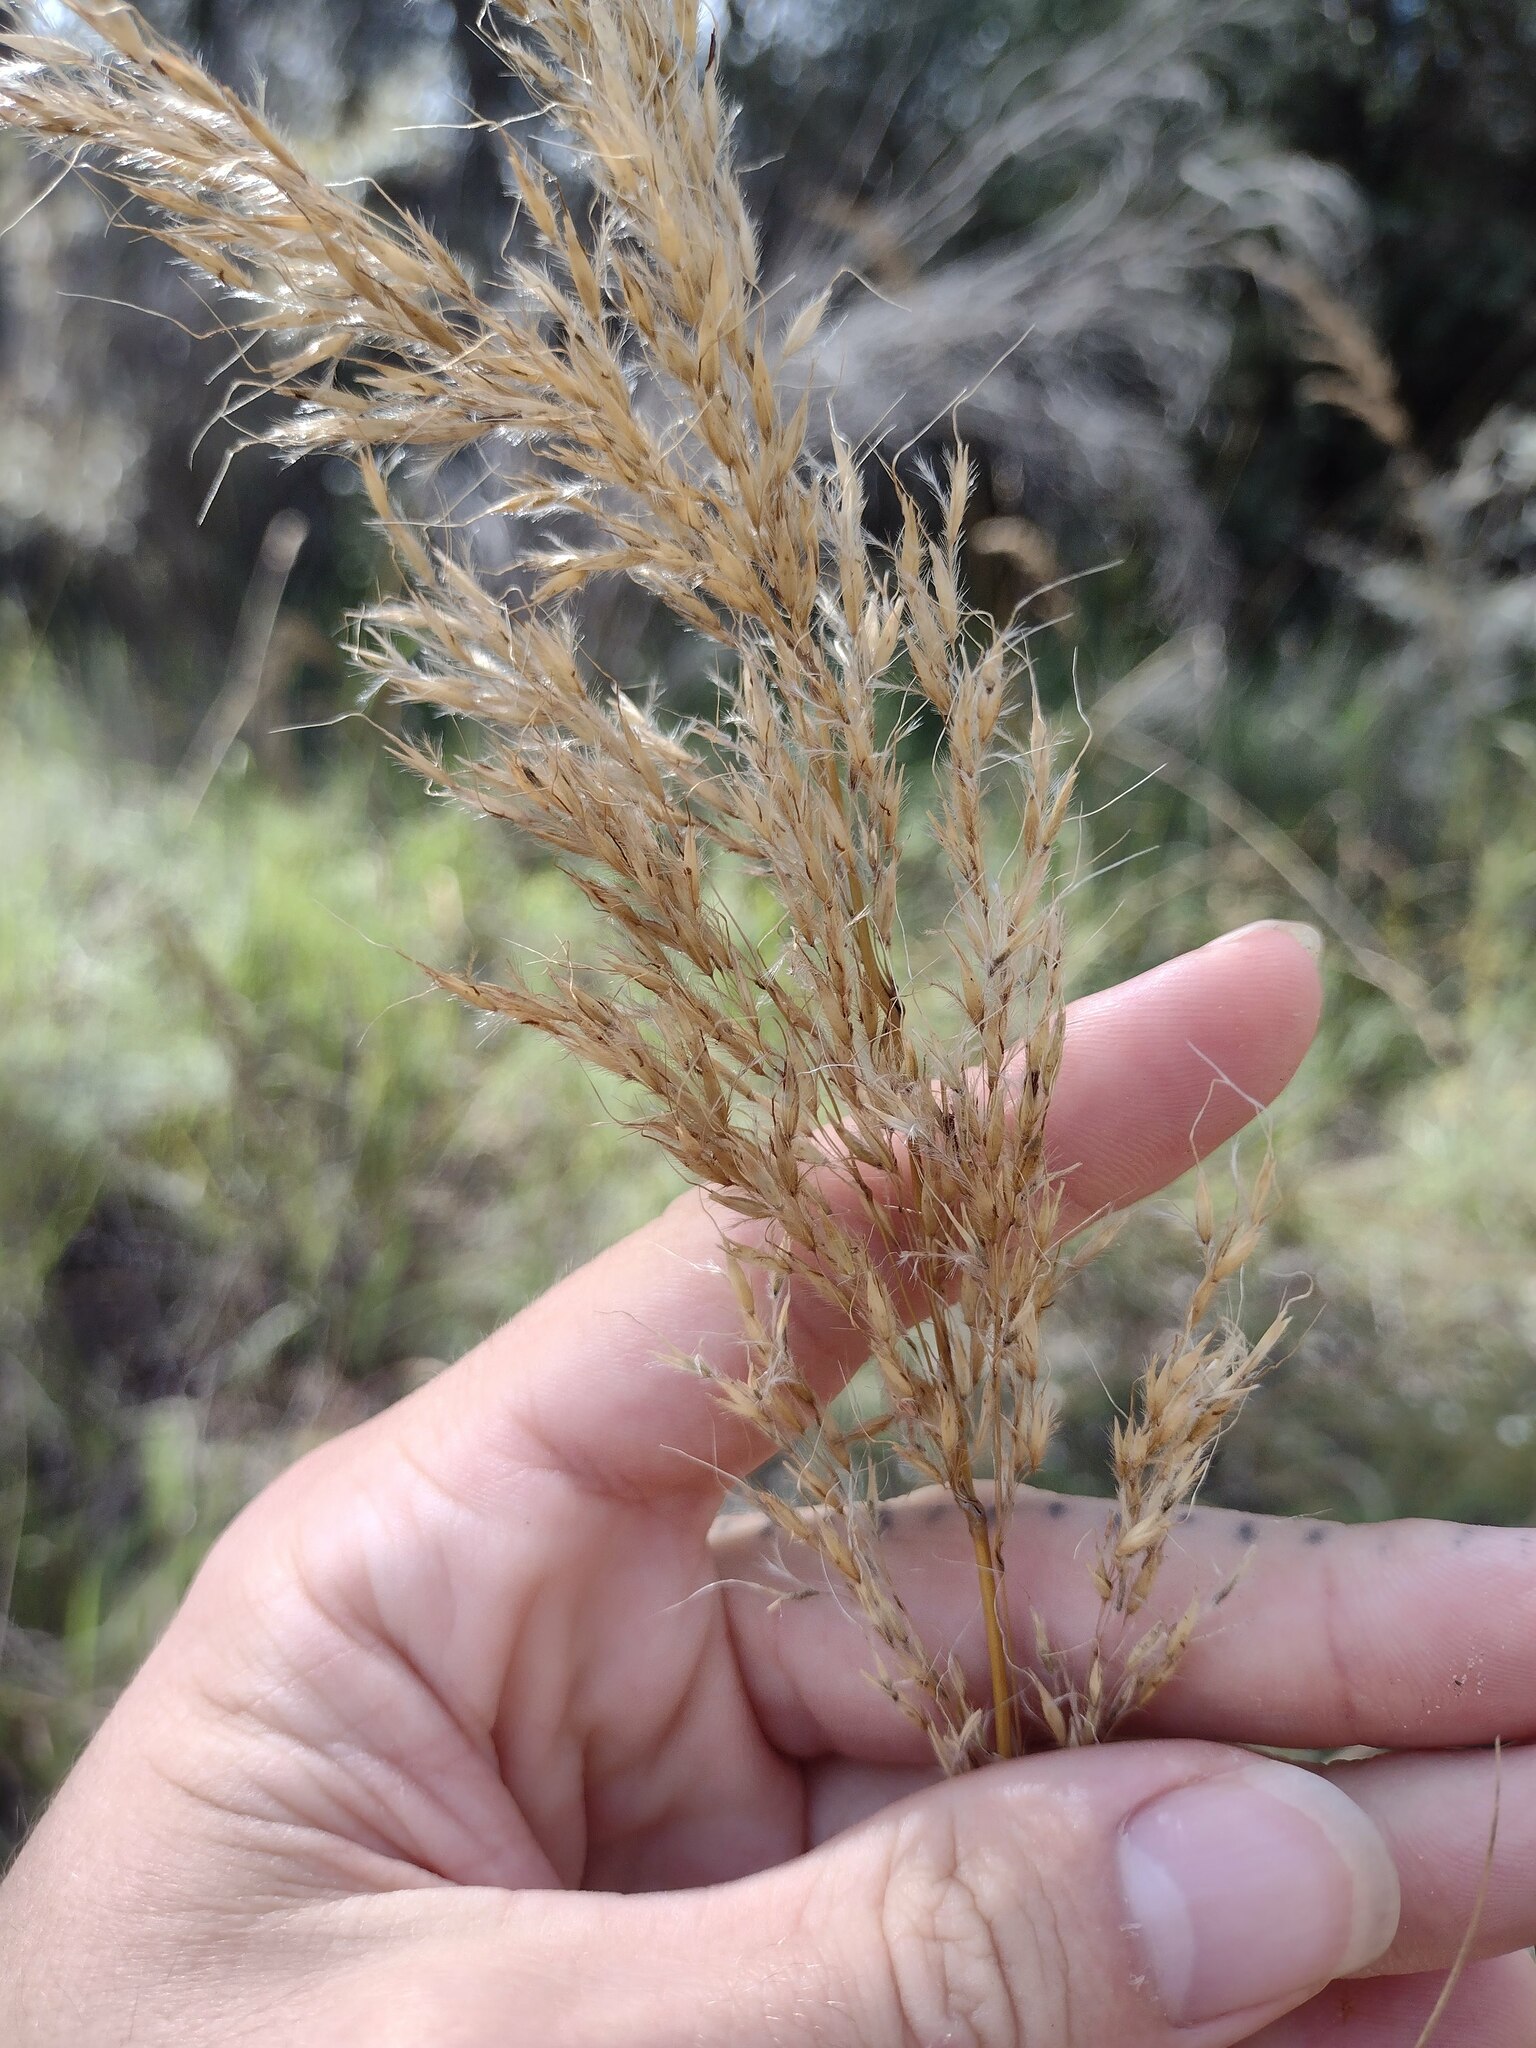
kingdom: Plantae
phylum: Tracheophyta
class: Liliopsida
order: Poales
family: Poaceae
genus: Sorghastrum
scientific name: Sorghastrum nutans
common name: Indian grass
